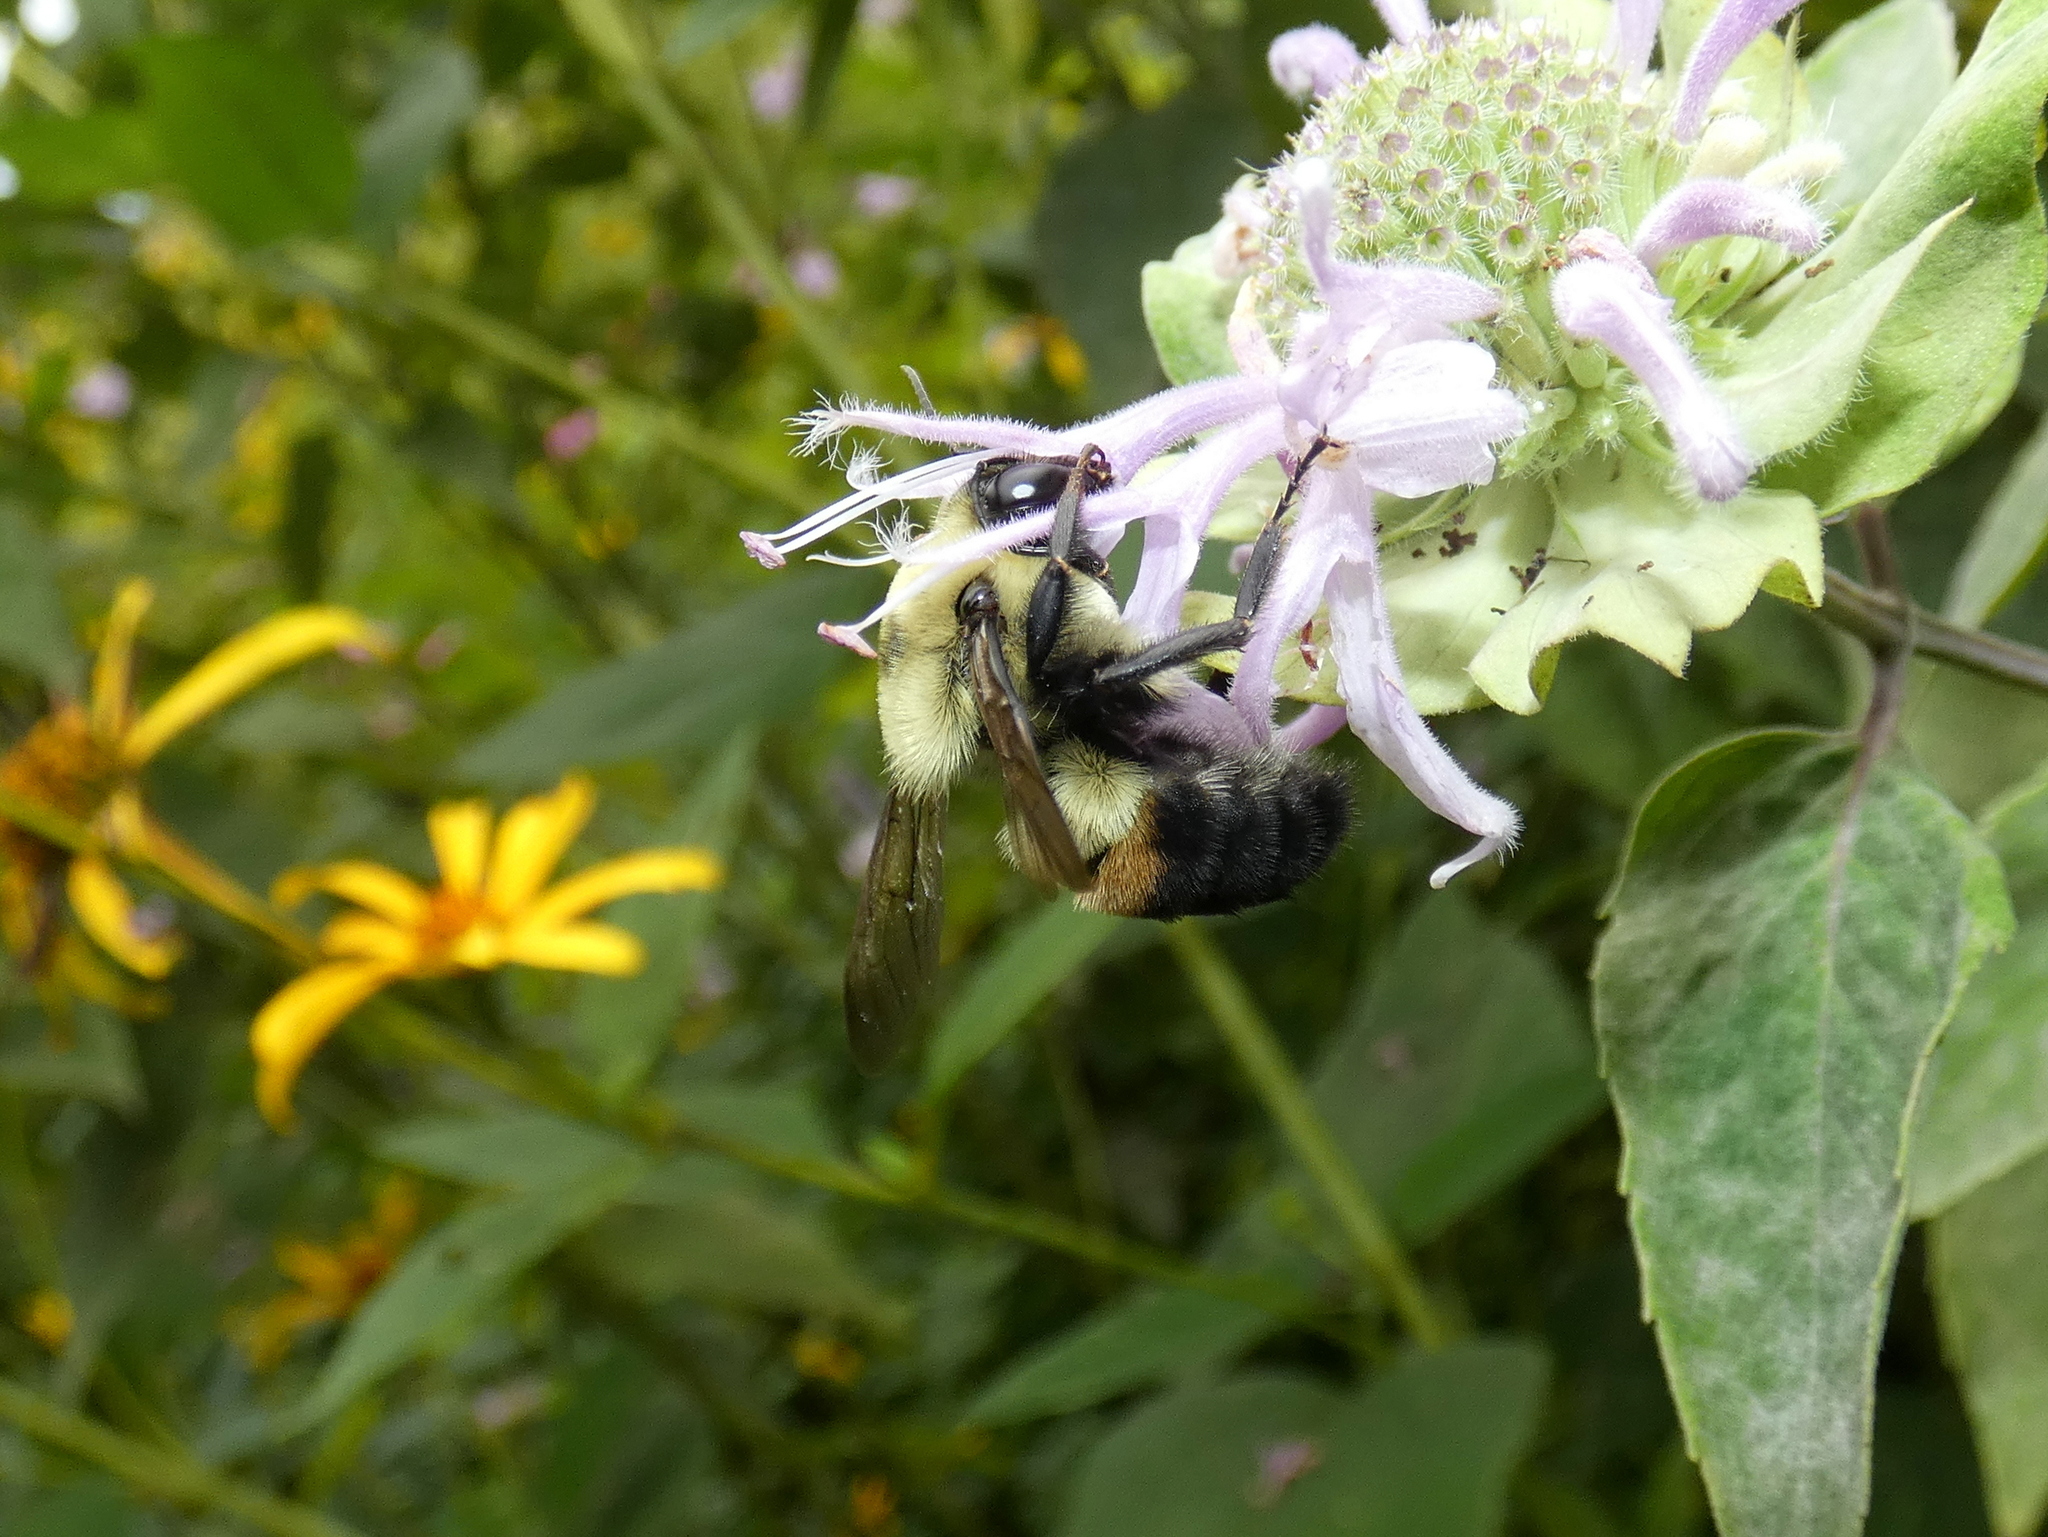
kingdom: Animalia
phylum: Arthropoda
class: Insecta
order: Hymenoptera
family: Apidae
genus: Bombus
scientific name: Bombus griseocollis
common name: Brown-belted bumble bee
